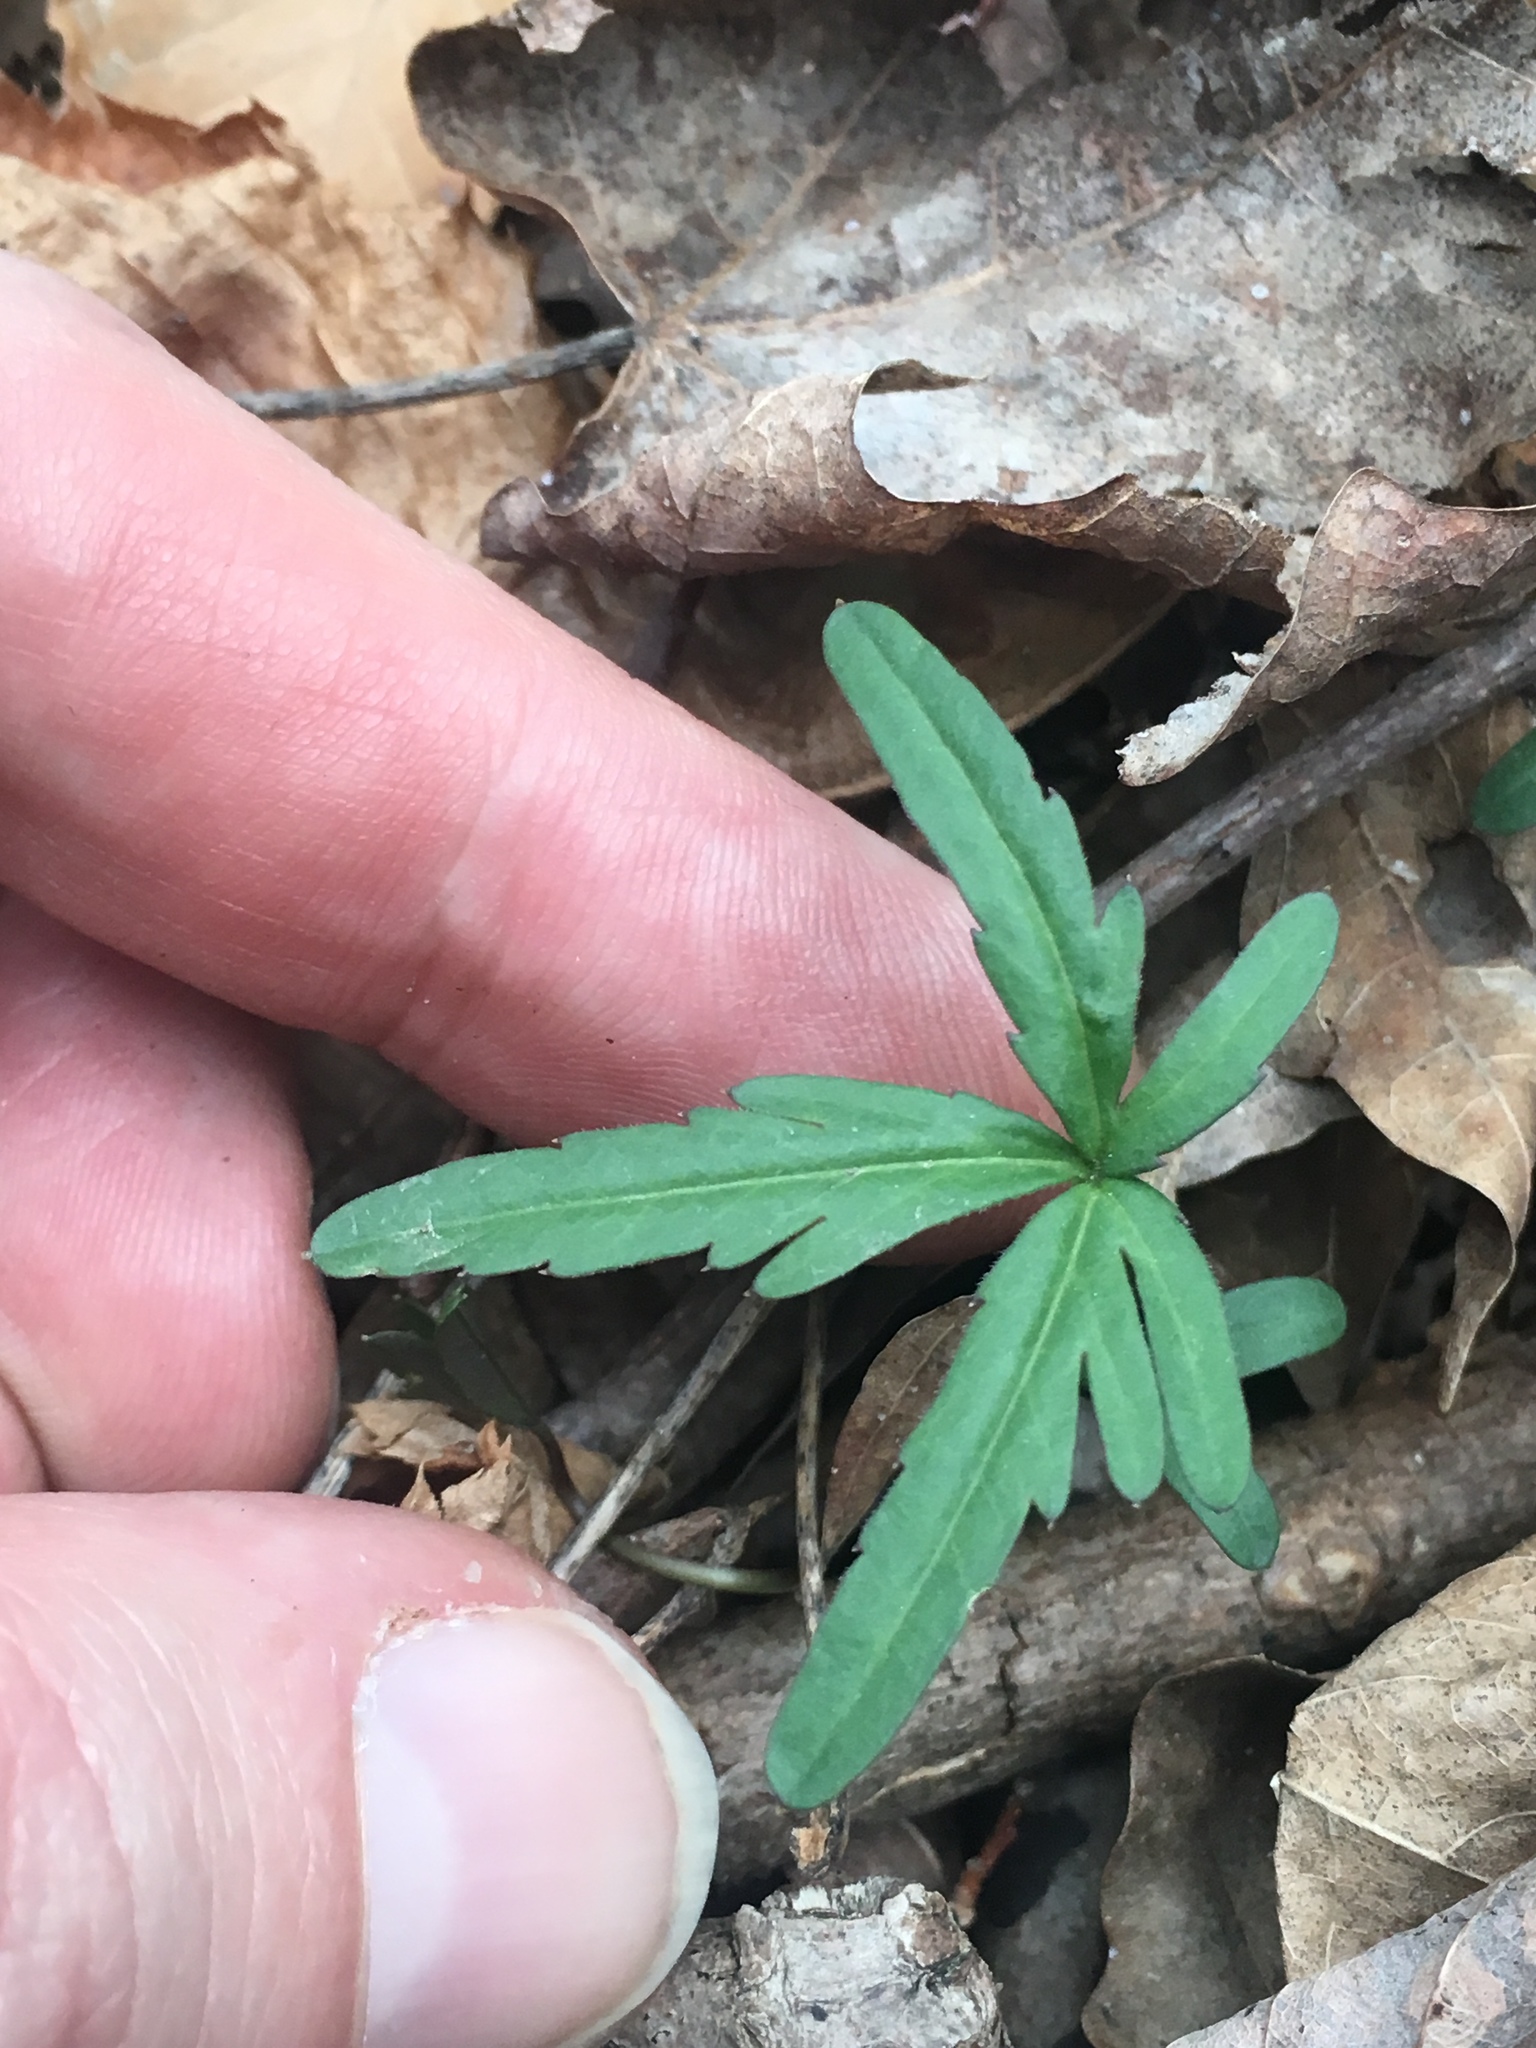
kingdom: Plantae
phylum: Tracheophyta
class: Magnoliopsida
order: Brassicales
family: Brassicaceae
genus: Cardamine
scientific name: Cardamine concatenata
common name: Cut-leaf toothcup
